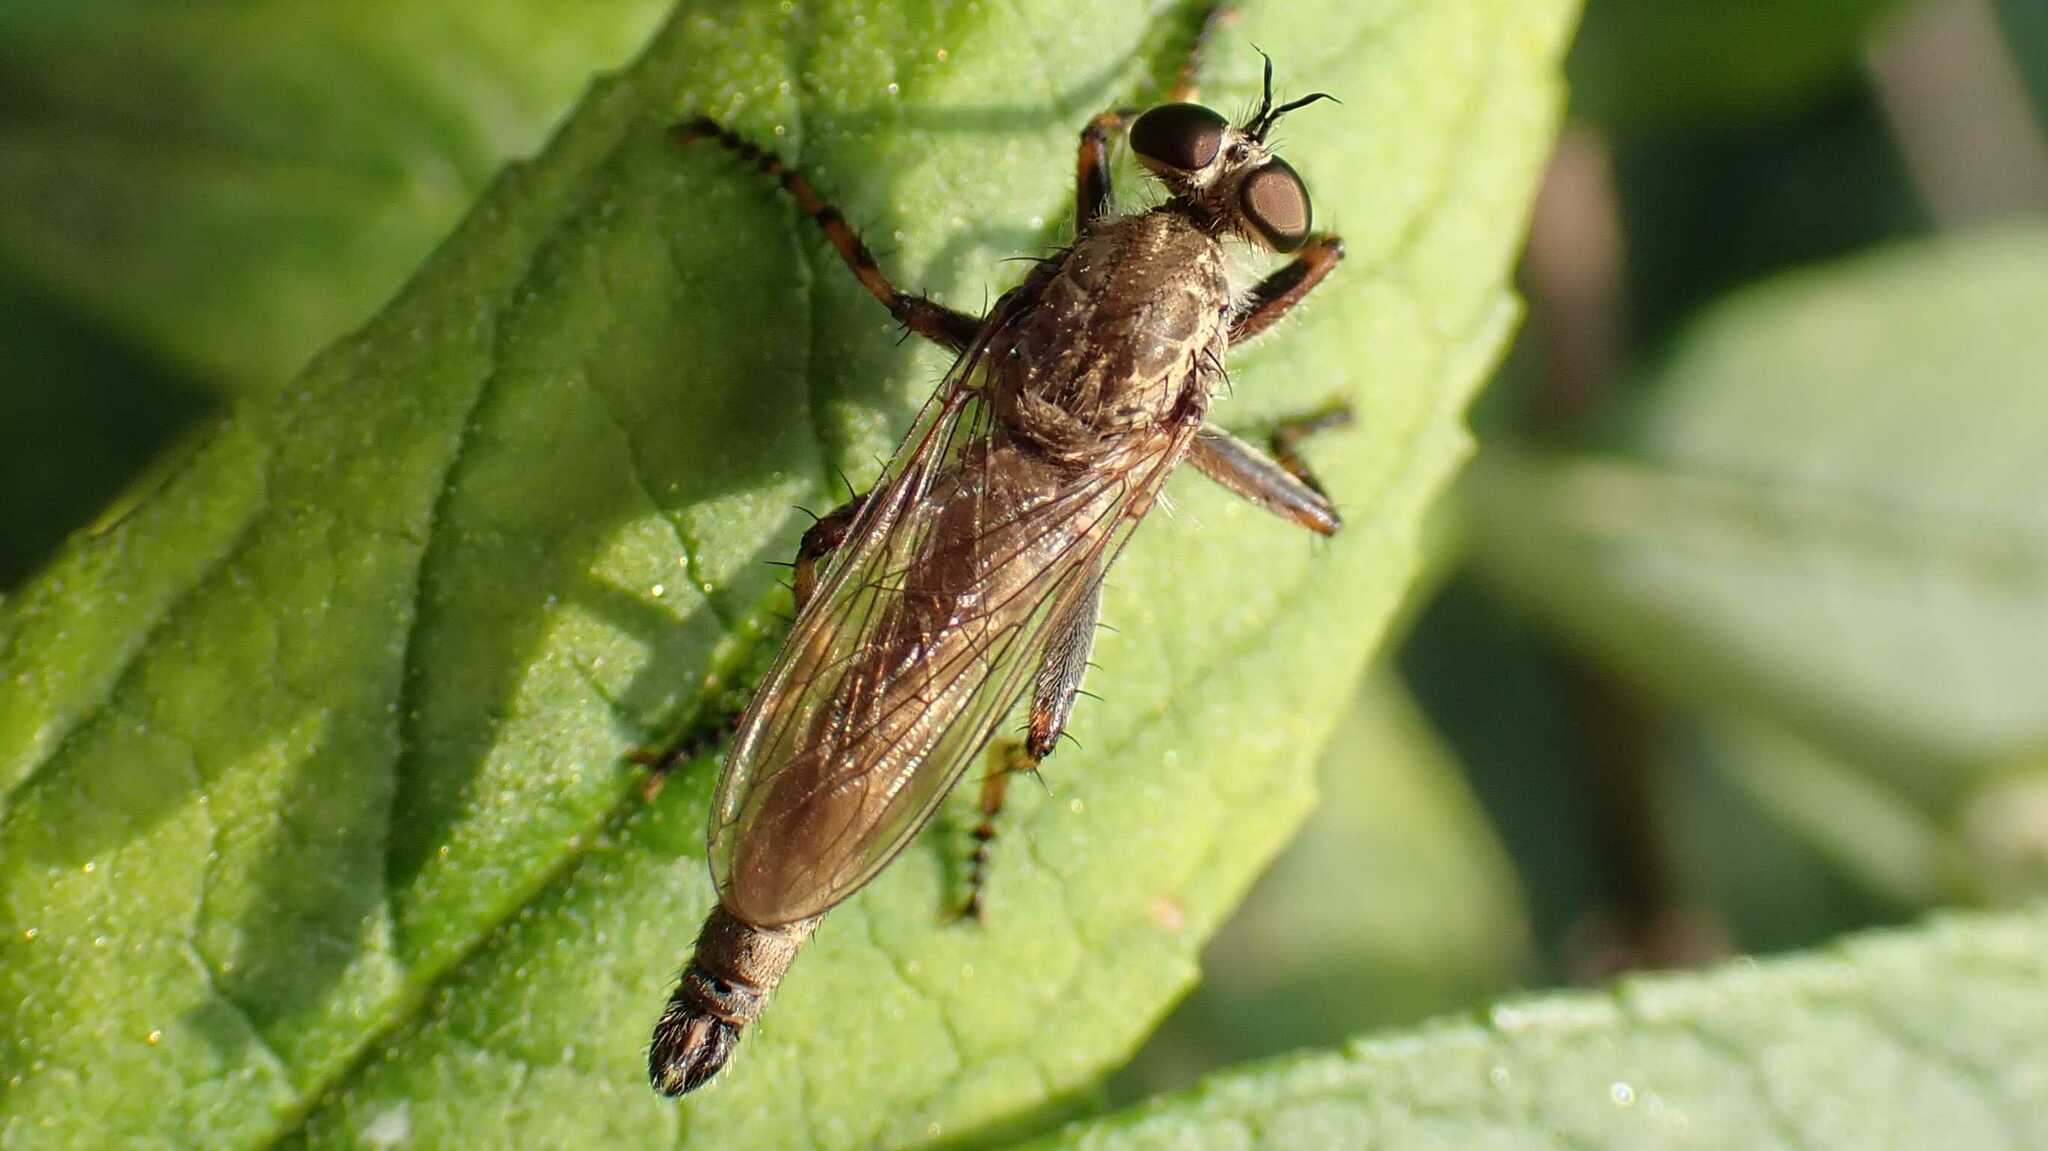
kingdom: Animalia
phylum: Arthropoda
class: Insecta
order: Diptera
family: Asilidae
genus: Epitriptus
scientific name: Epitriptus cingulatus
